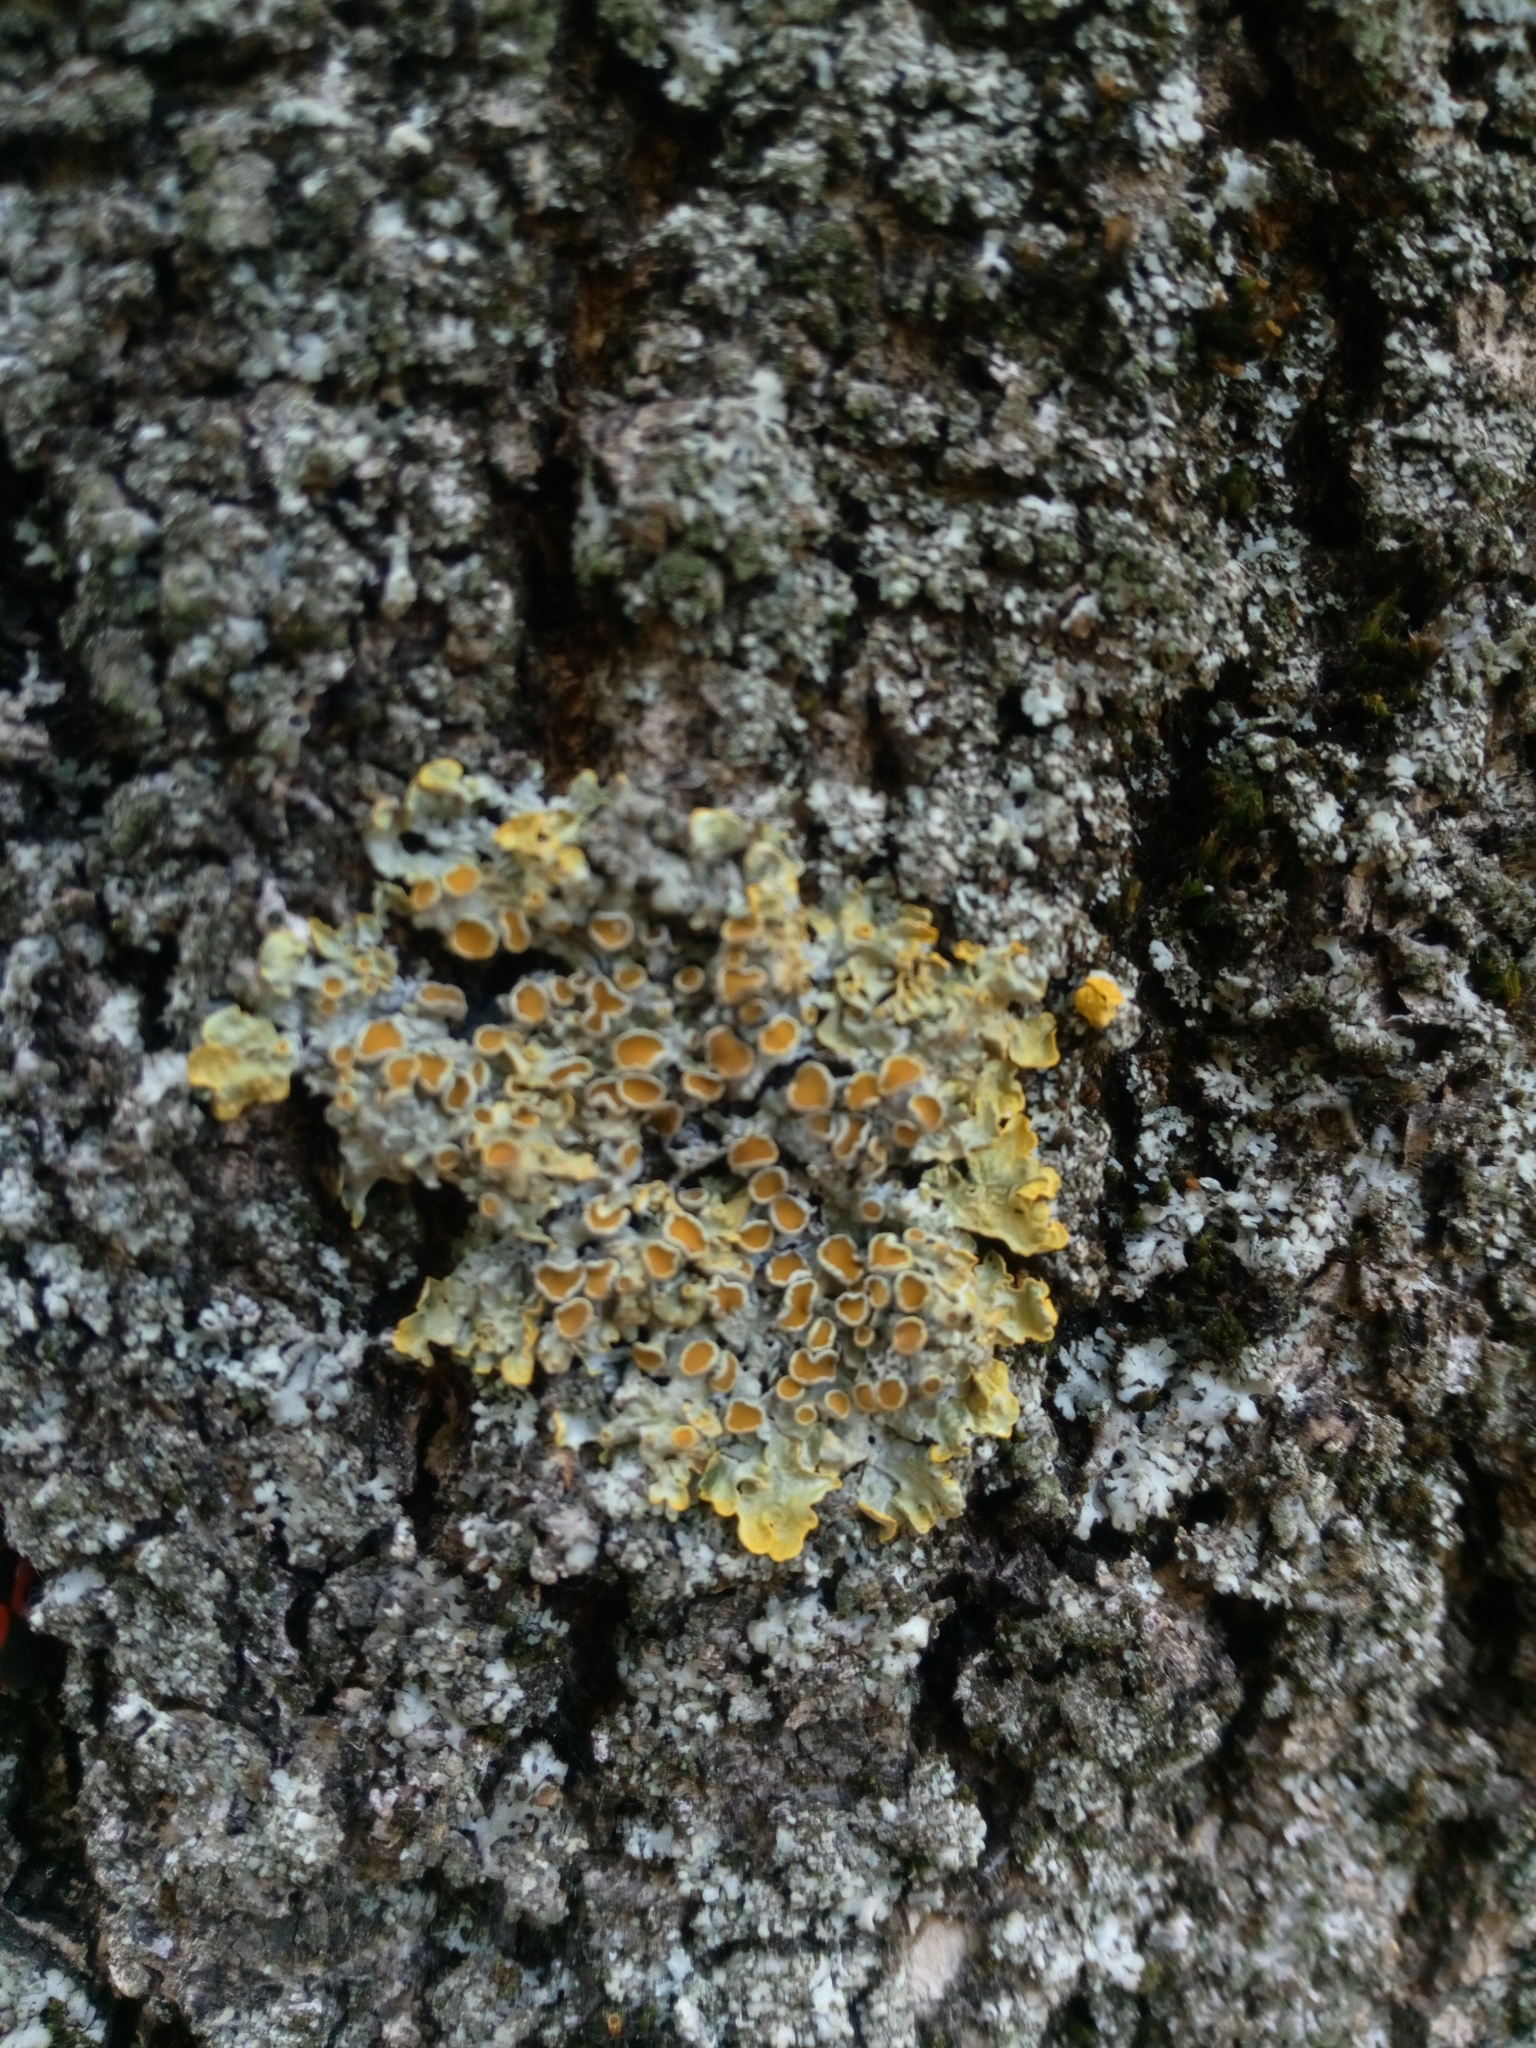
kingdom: Fungi
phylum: Ascomycota
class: Lecanoromycetes
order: Teloschistales
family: Teloschistaceae
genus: Xanthoria
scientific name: Xanthoria parietina
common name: Common orange lichen
